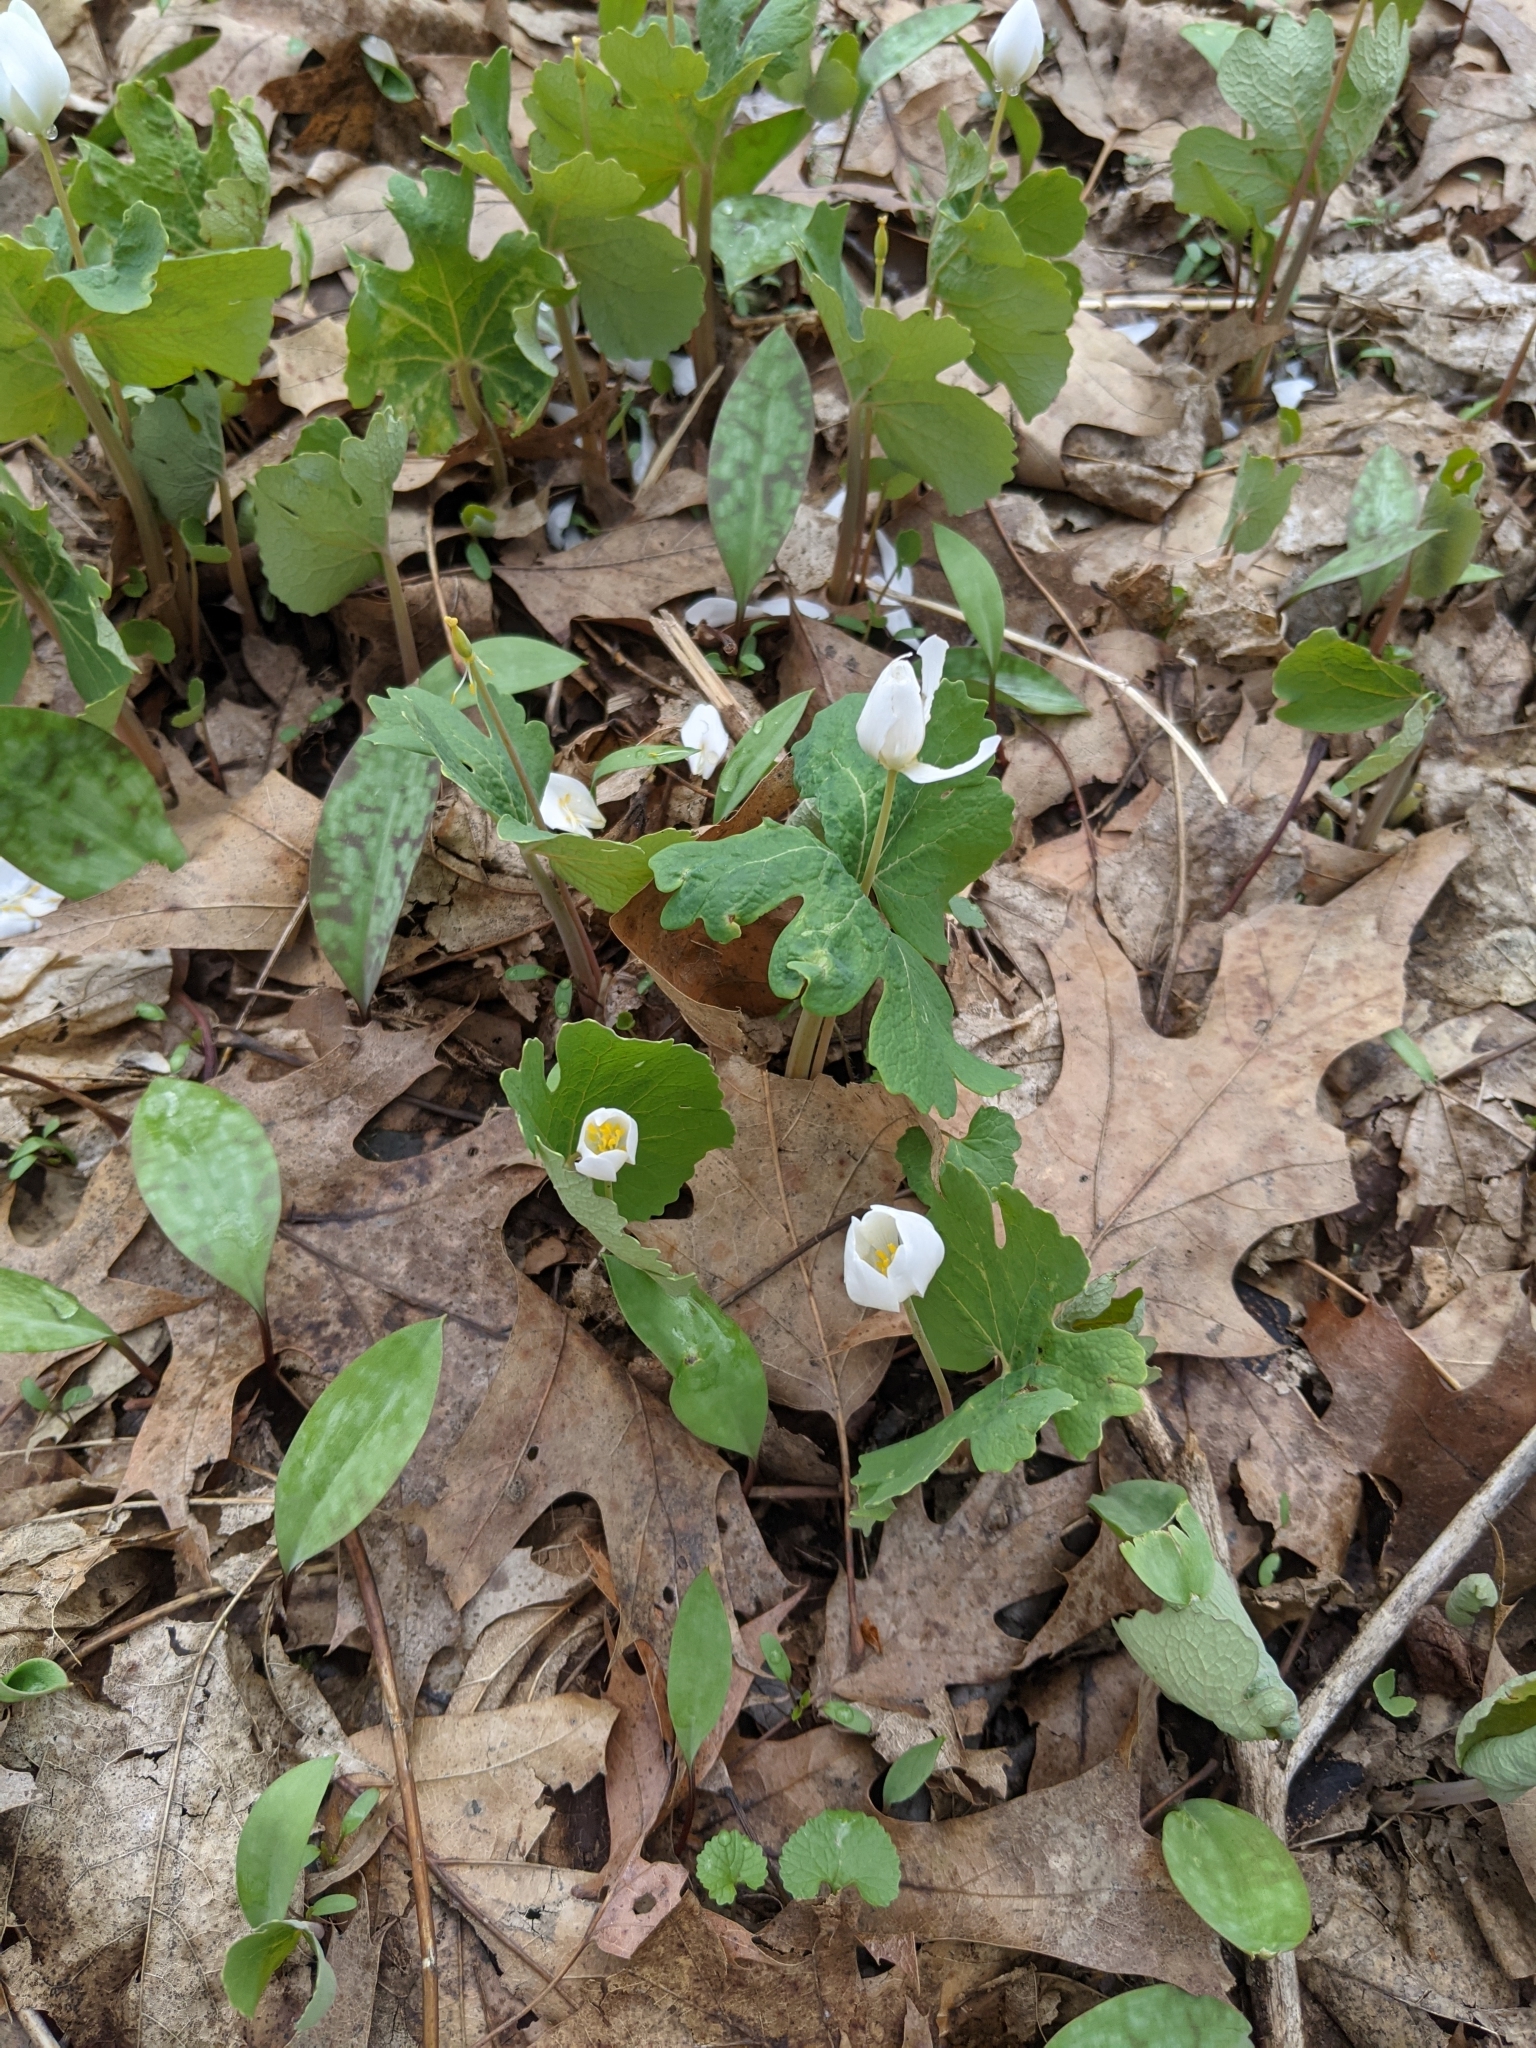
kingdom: Plantae
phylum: Tracheophyta
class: Magnoliopsida
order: Ranunculales
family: Papaveraceae
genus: Sanguinaria
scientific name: Sanguinaria canadensis
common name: Bloodroot
